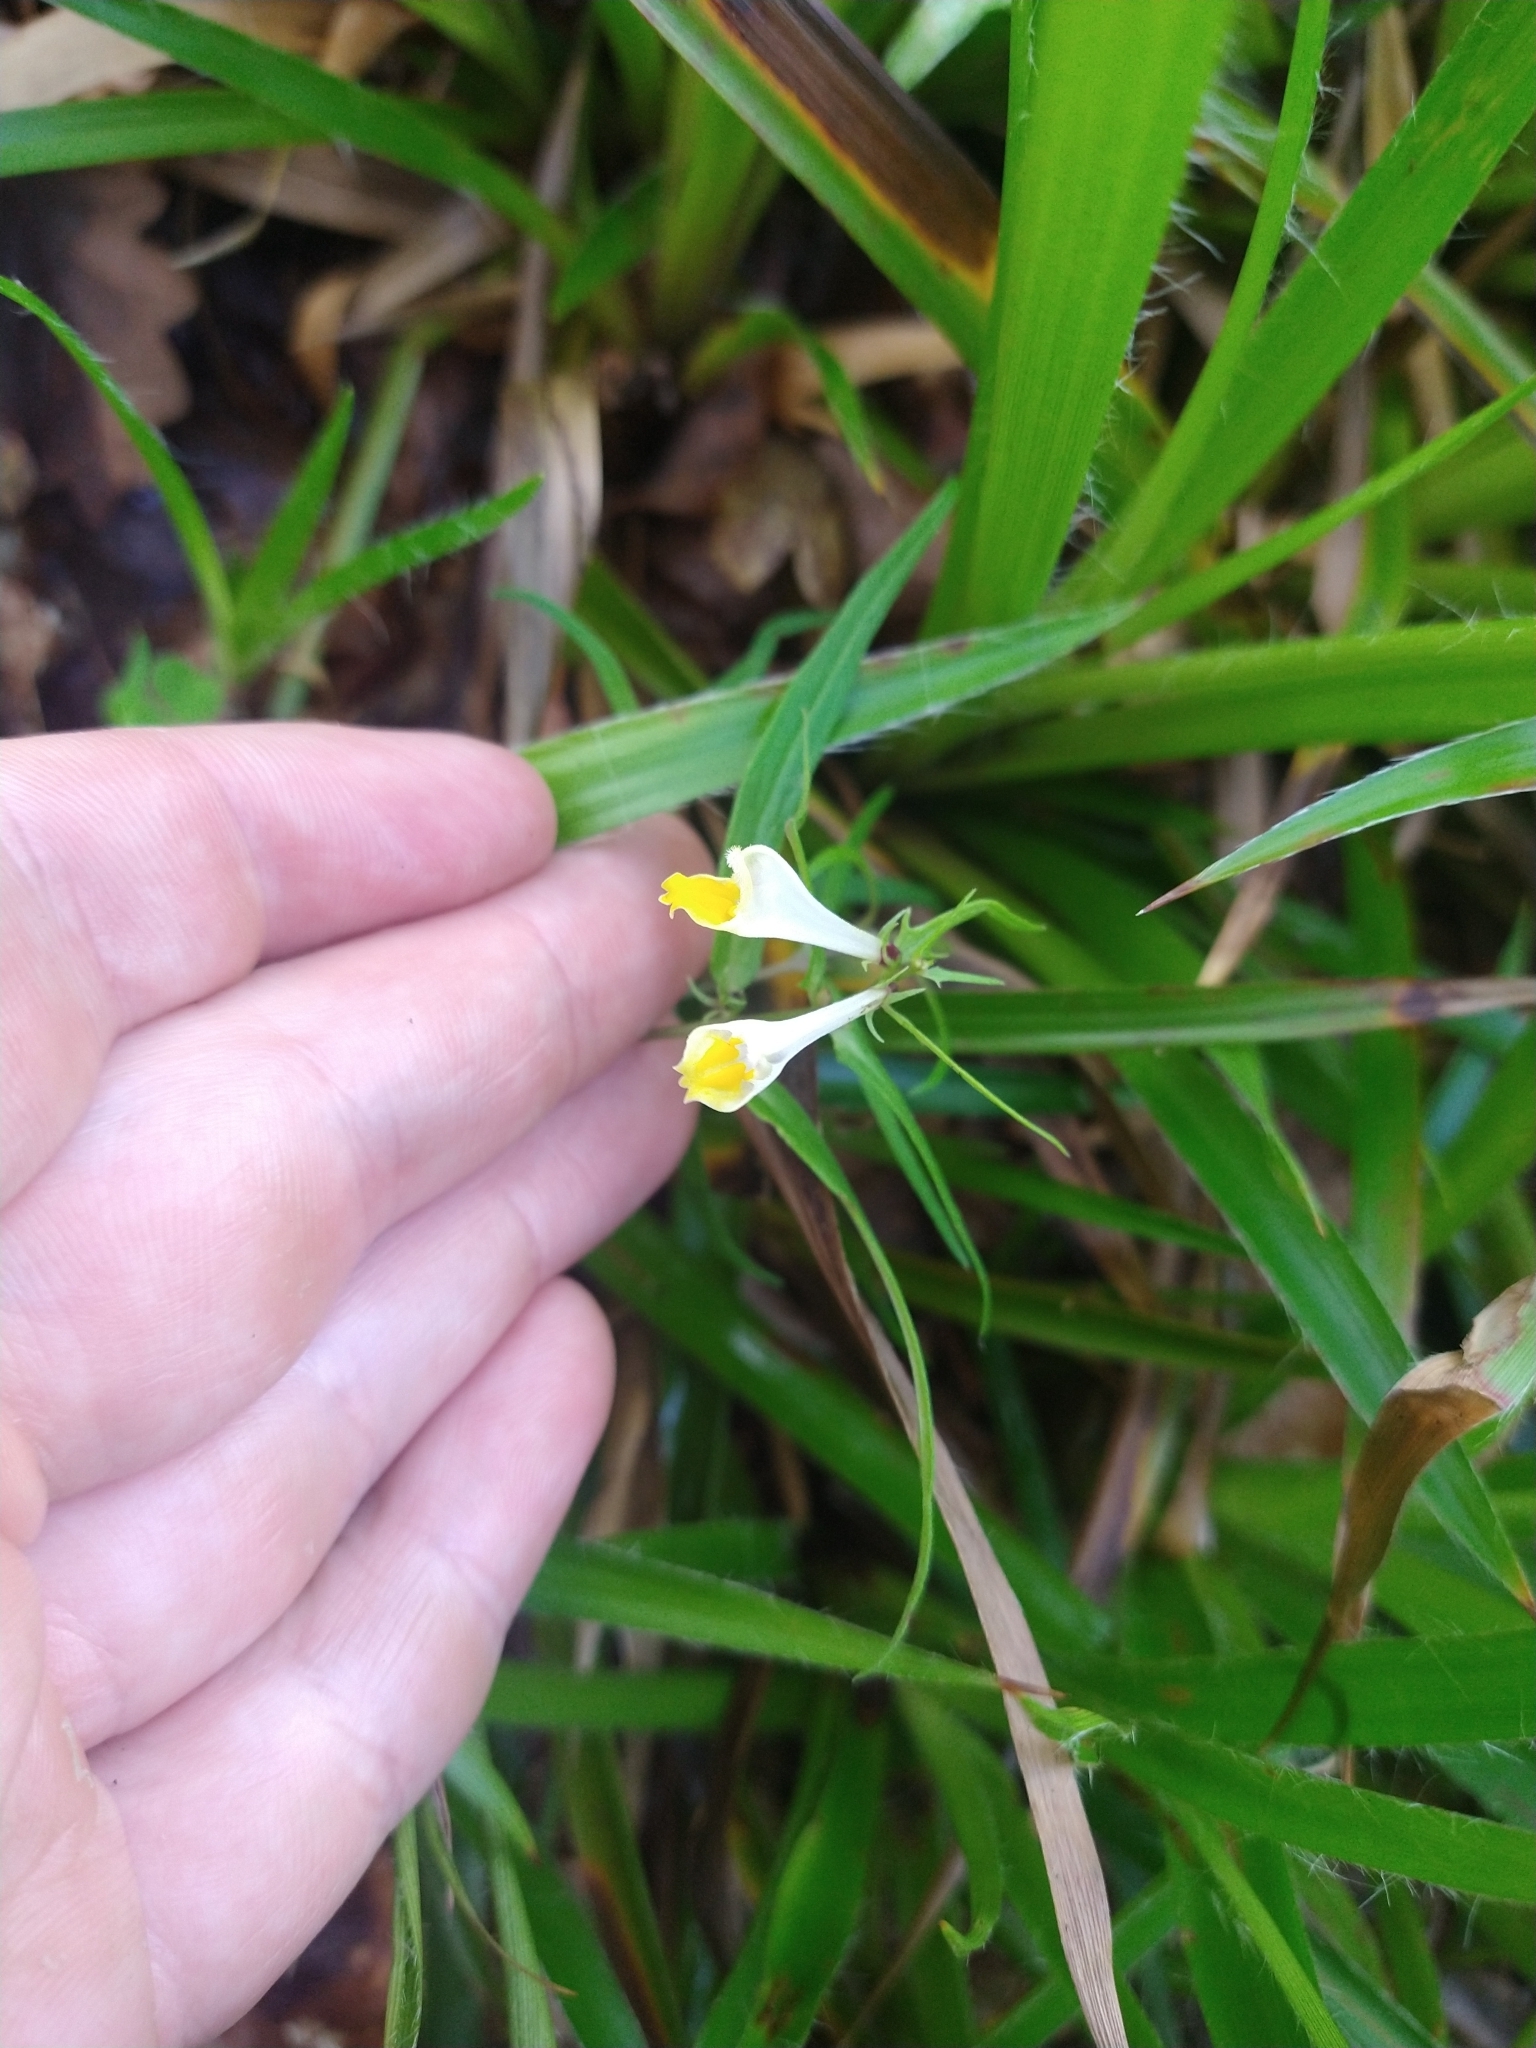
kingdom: Plantae
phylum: Tracheophyta
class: Magnoliopsida
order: Lamiales
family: Orobanchaceae
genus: Melampyrum
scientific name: Melampyrum pratense
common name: Common cow-wheat
